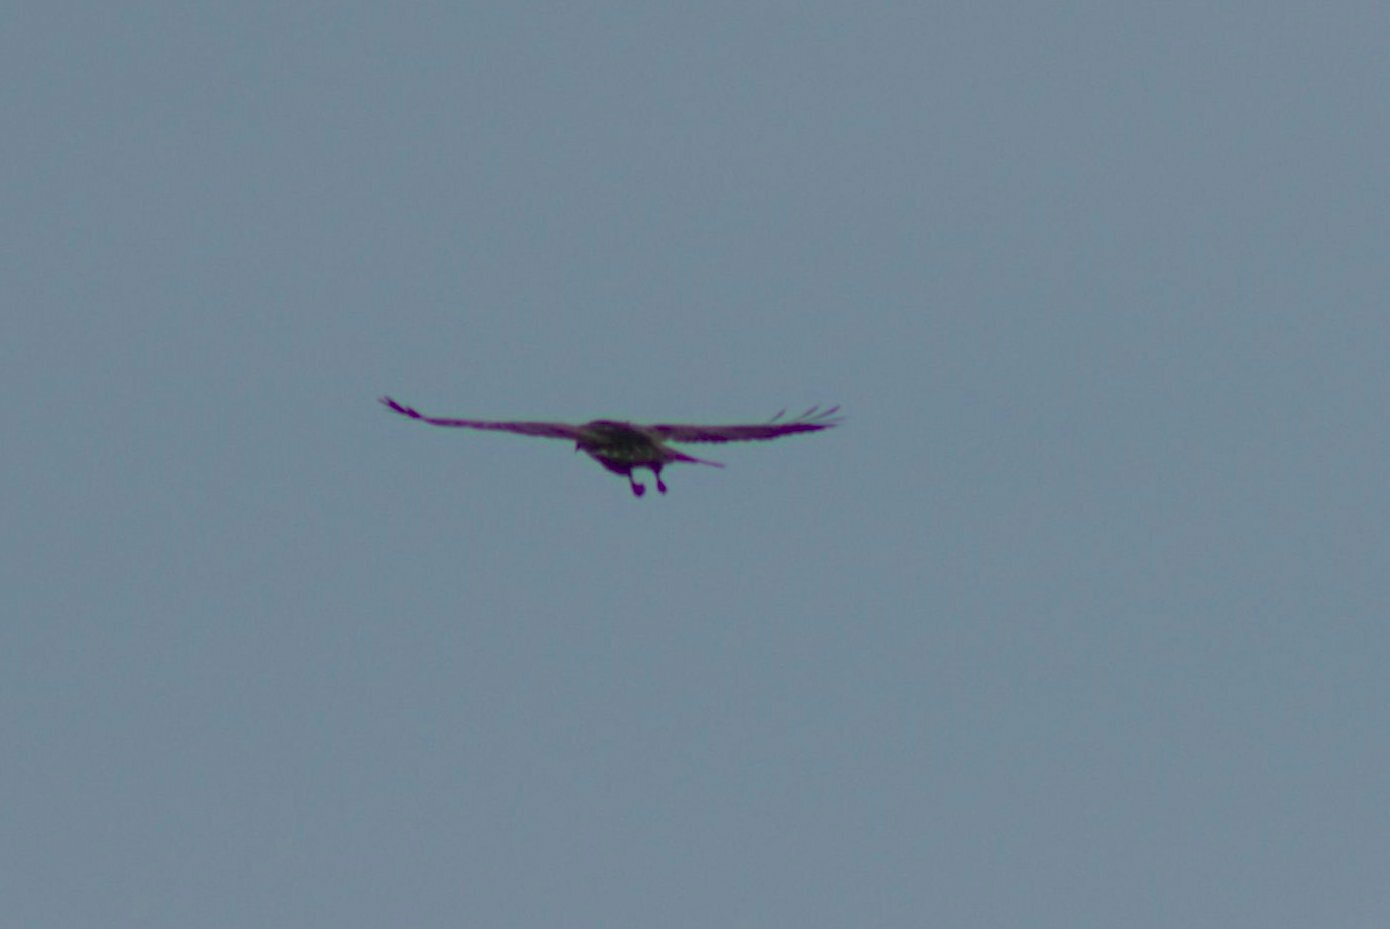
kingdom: Animalia
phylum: Chordata
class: Aves
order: Accipitriformes
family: Accipitridae
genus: Buteo
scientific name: Buteo buteo
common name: Common buzzard
